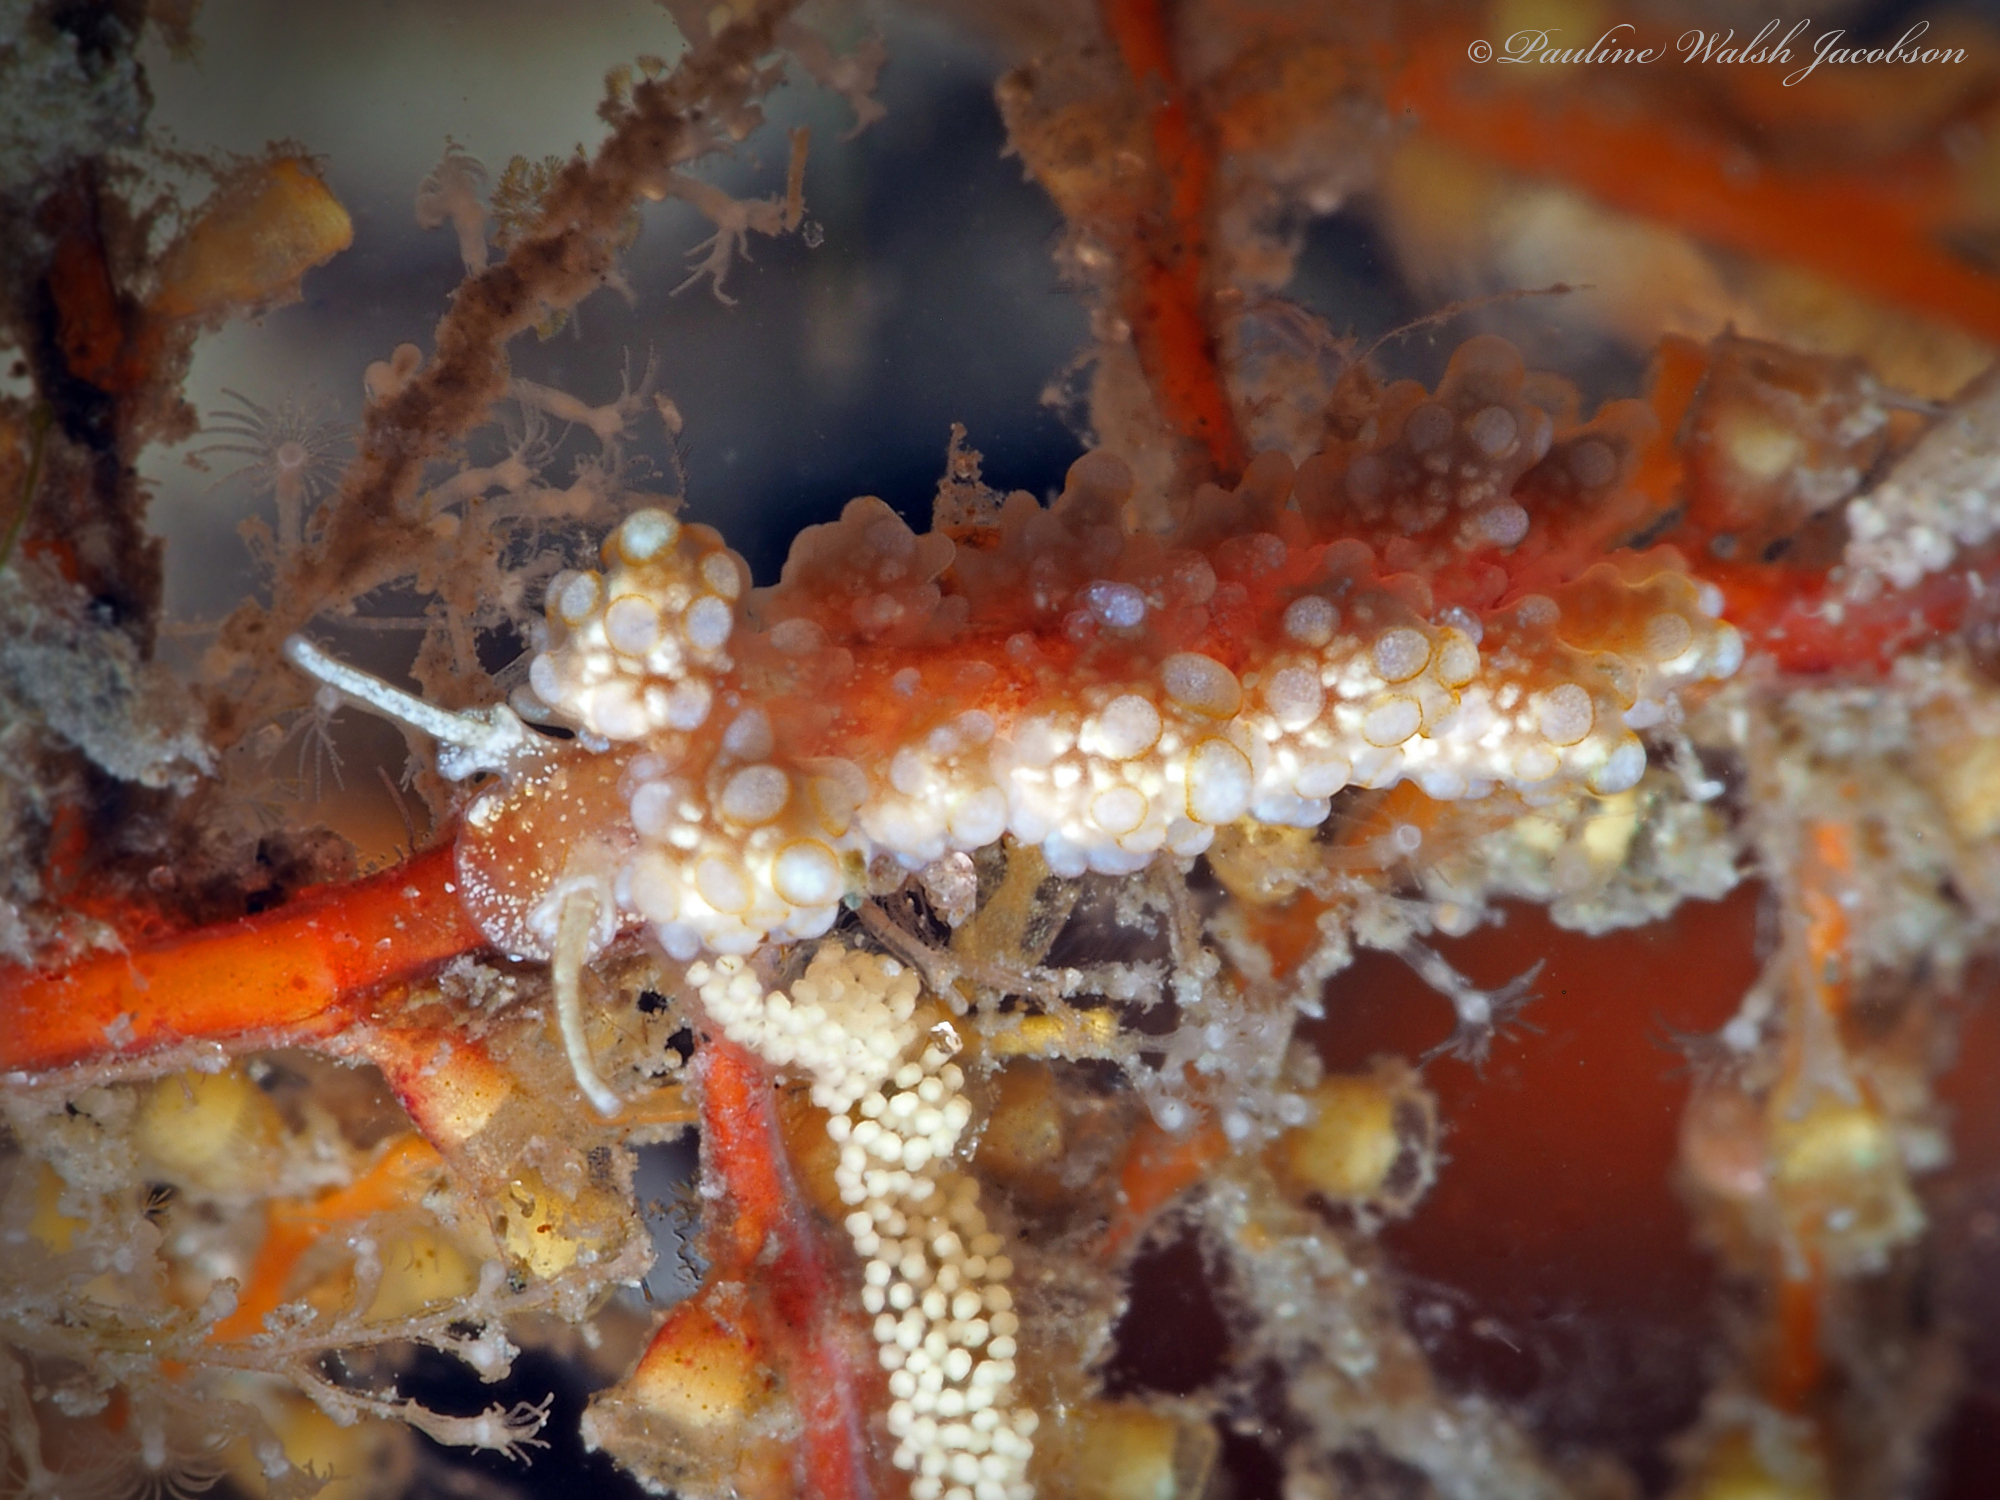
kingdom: Animalia
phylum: Mollusca
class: Gastropoda
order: Nudibranchia
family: Dotidae
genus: Doto
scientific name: Doto torrelavega
